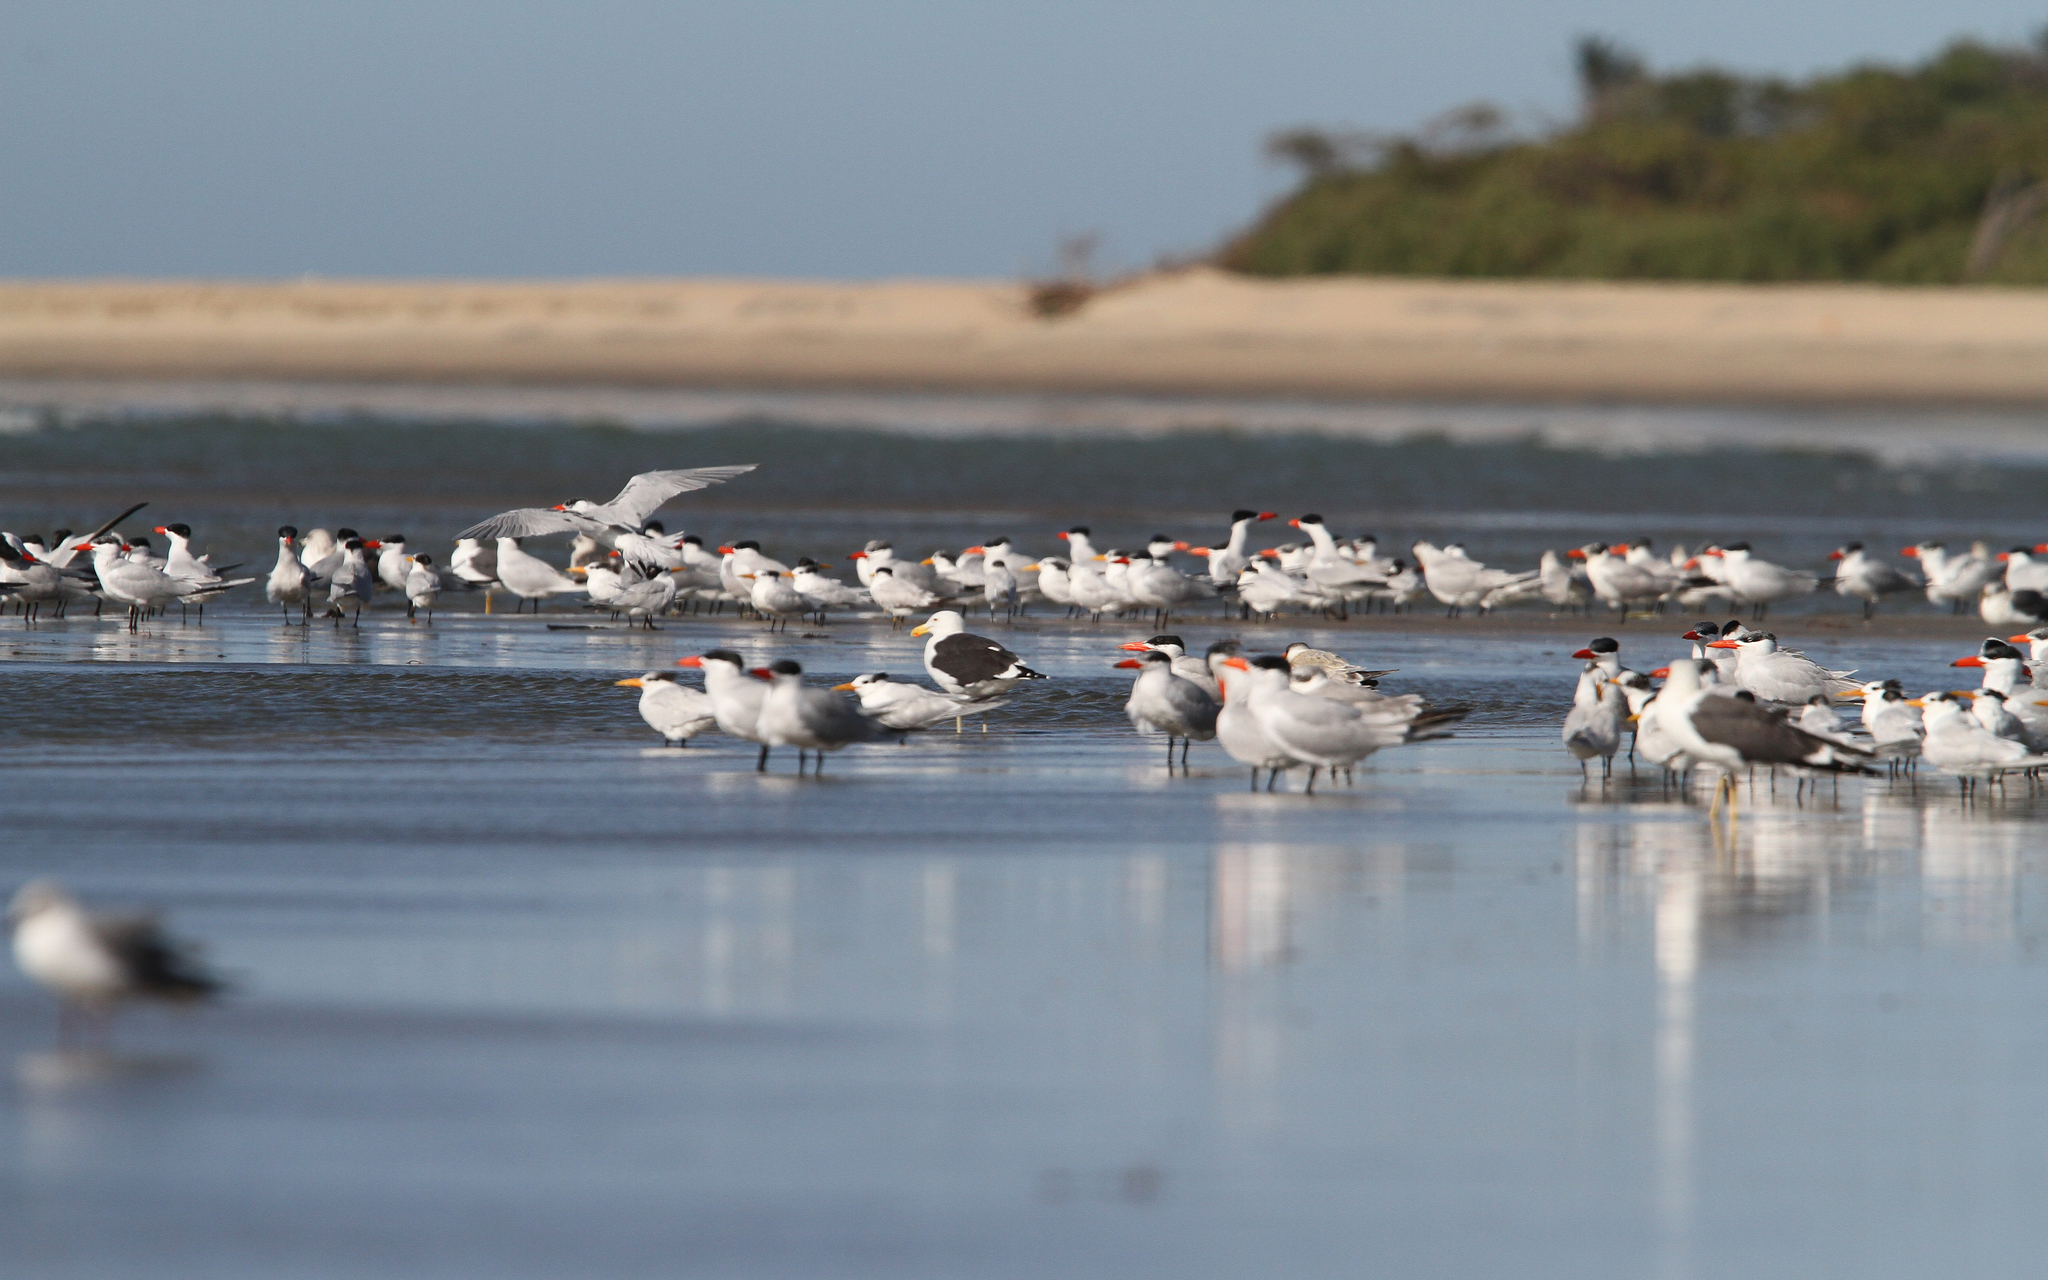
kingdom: Animalia
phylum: Chordata
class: Aves
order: Charadriiformes
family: Laridae
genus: Larus
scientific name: Larus dominicanus
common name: Kelp gull
